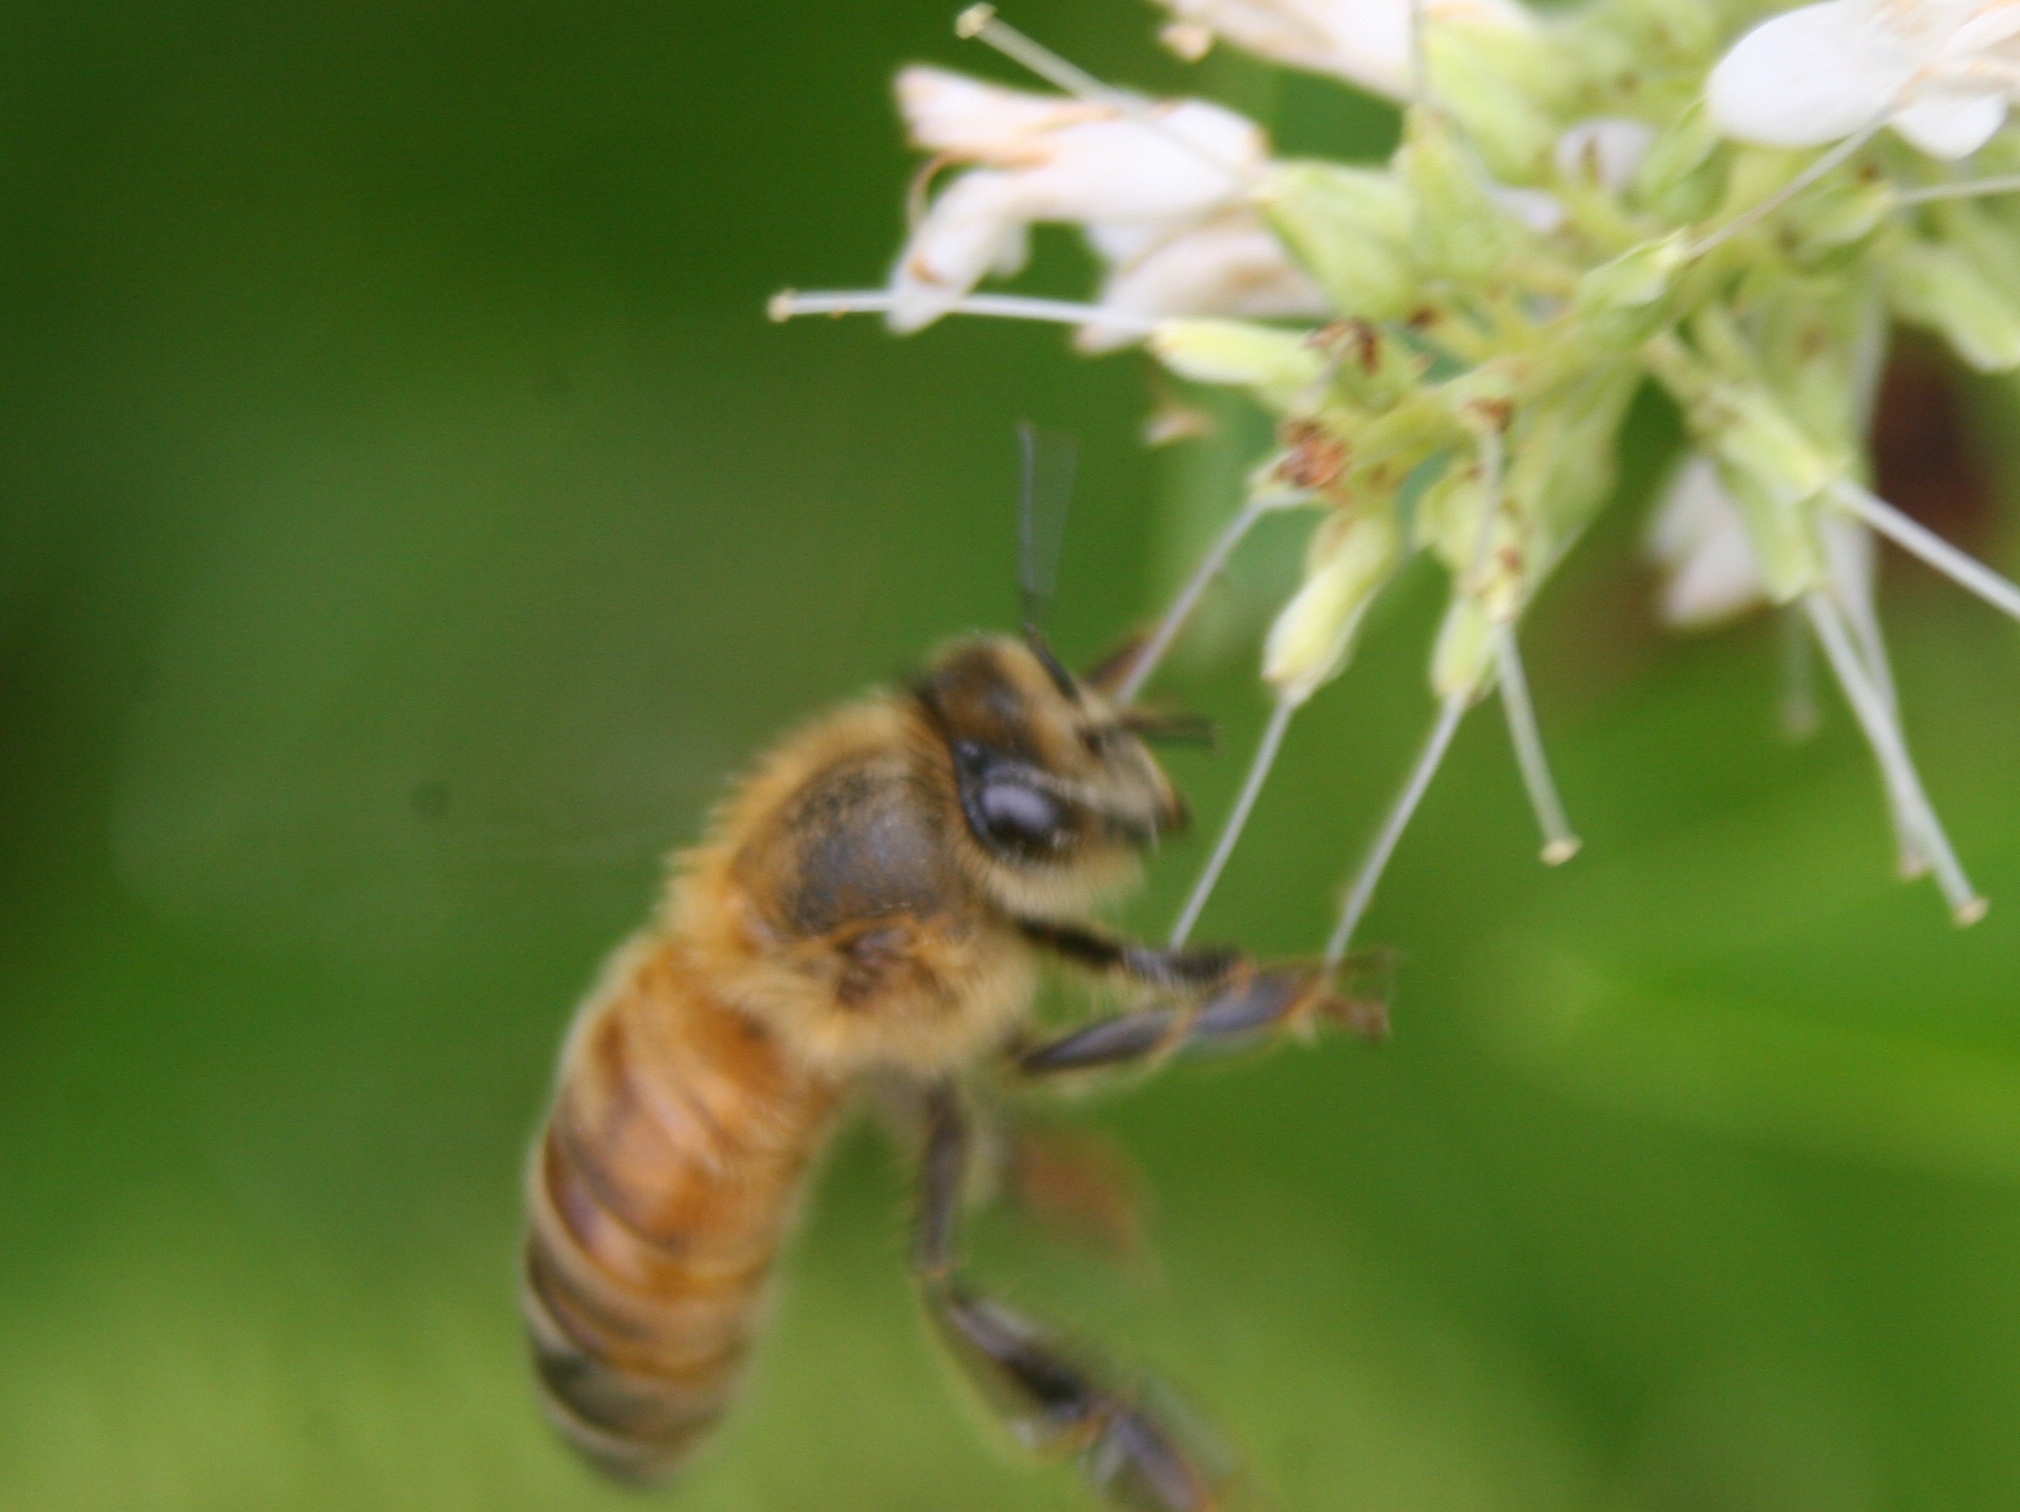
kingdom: Animalia
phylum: Arthropoda
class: Insecta
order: Hymenoptera
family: Apidae
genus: Apis
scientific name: Apis mellifera
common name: Honey bee
